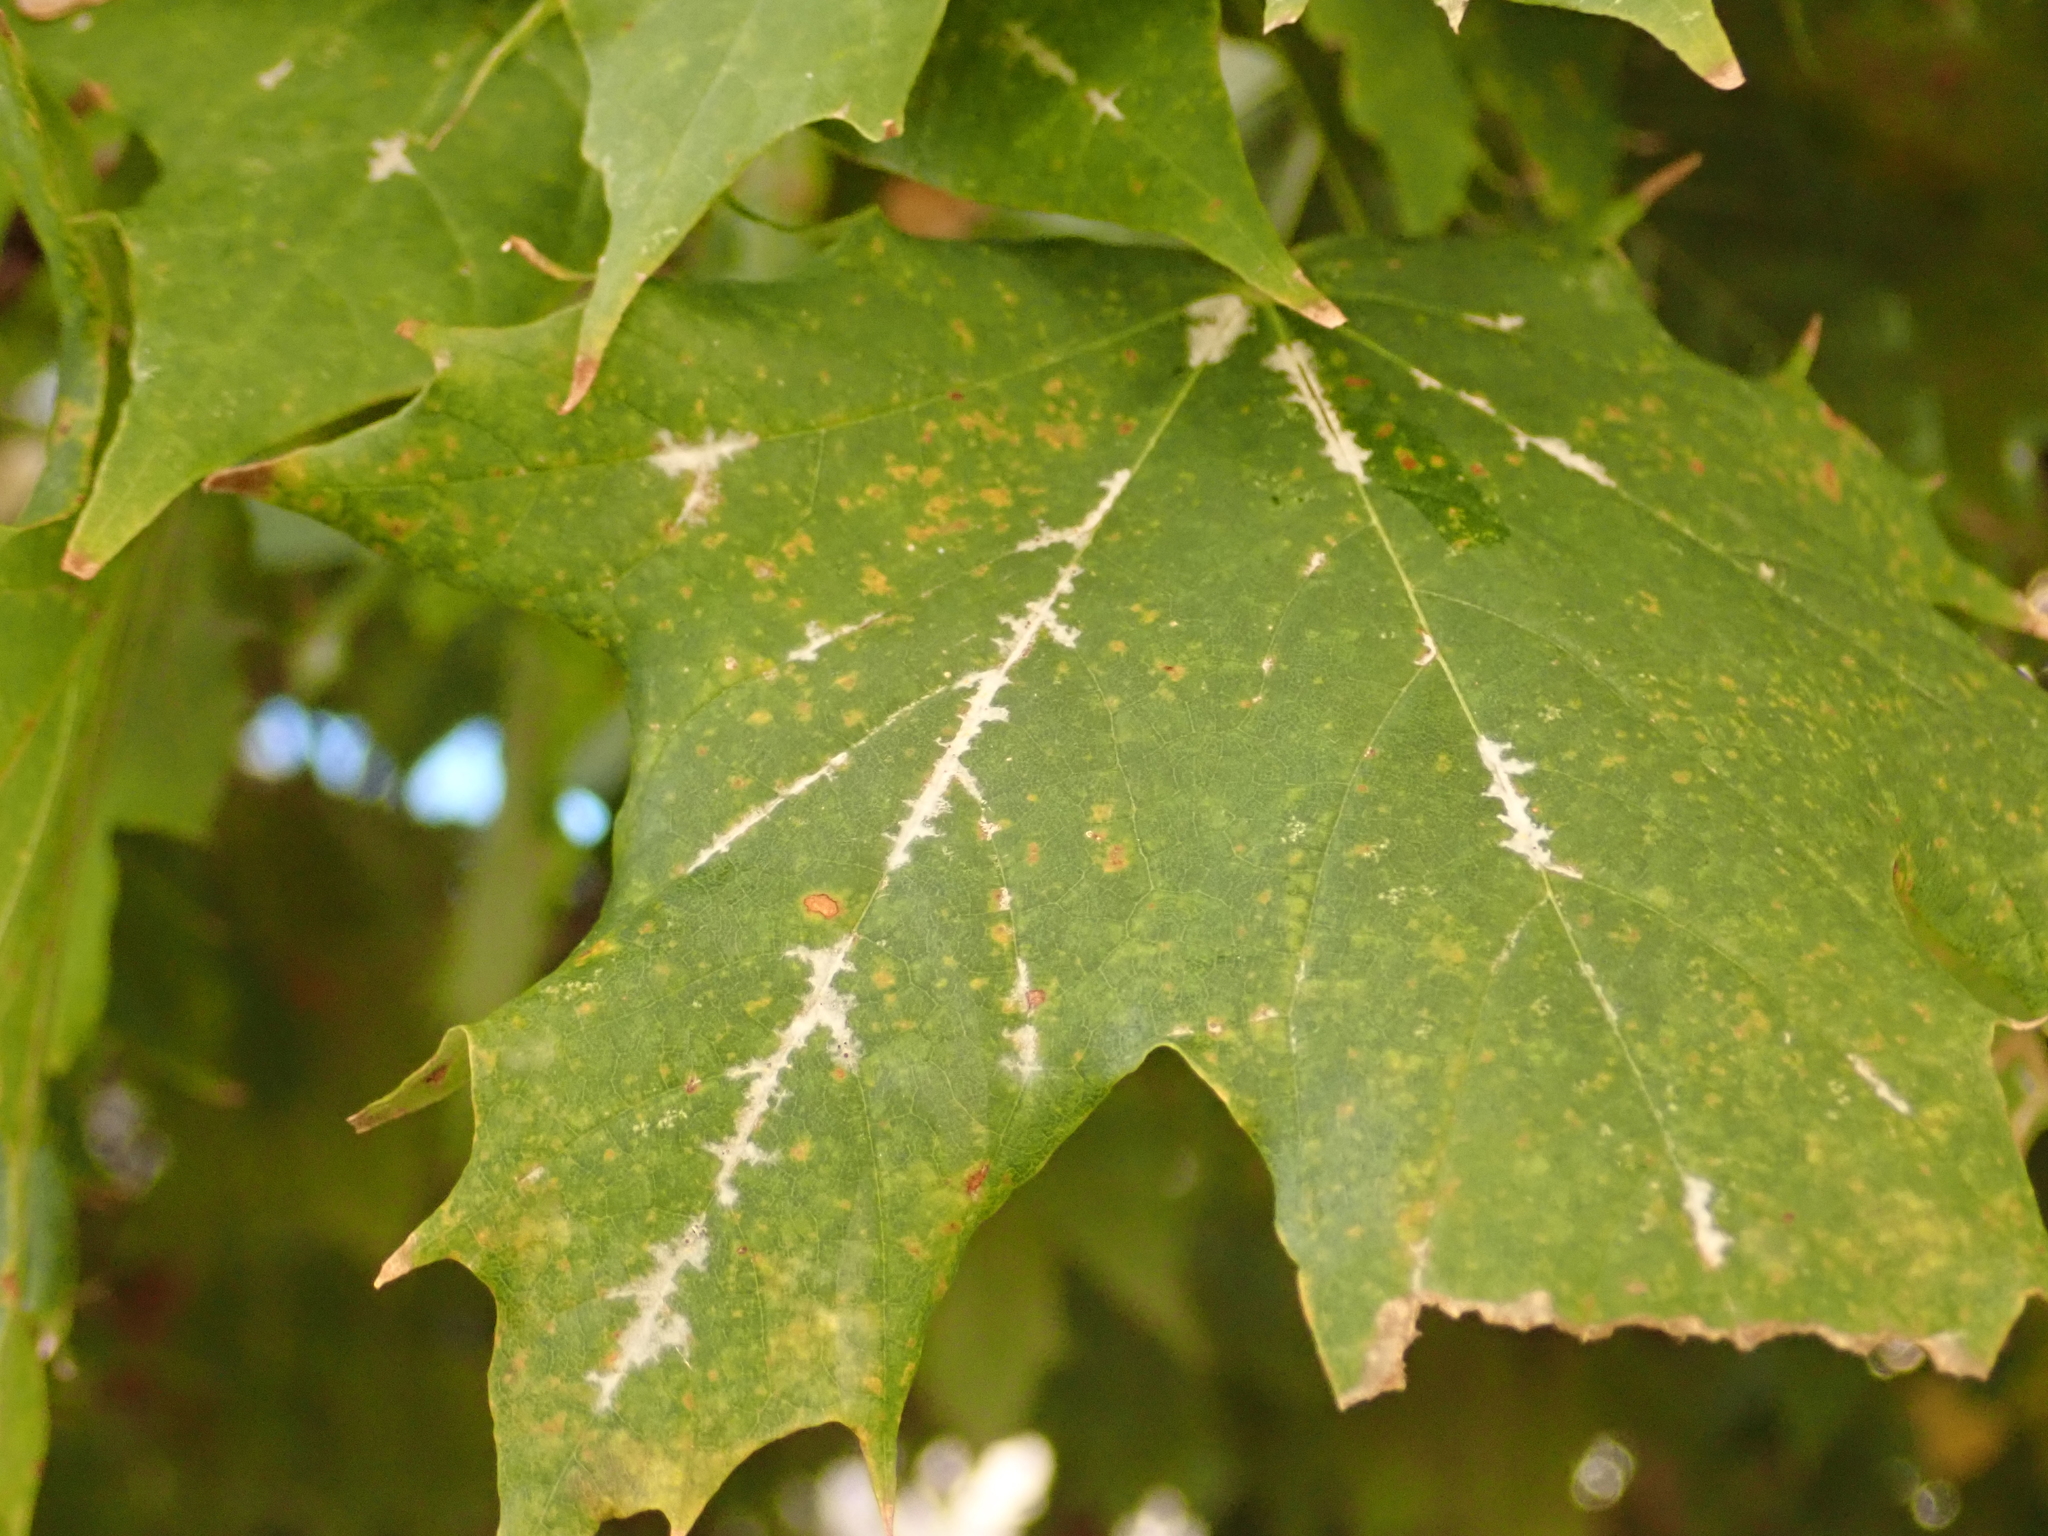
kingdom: Fungi
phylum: Ascomycota
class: Leotiomycetes
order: Helotiales
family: Erysiphaceae
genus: Sawadaea
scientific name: Sawadaea tulasnei
